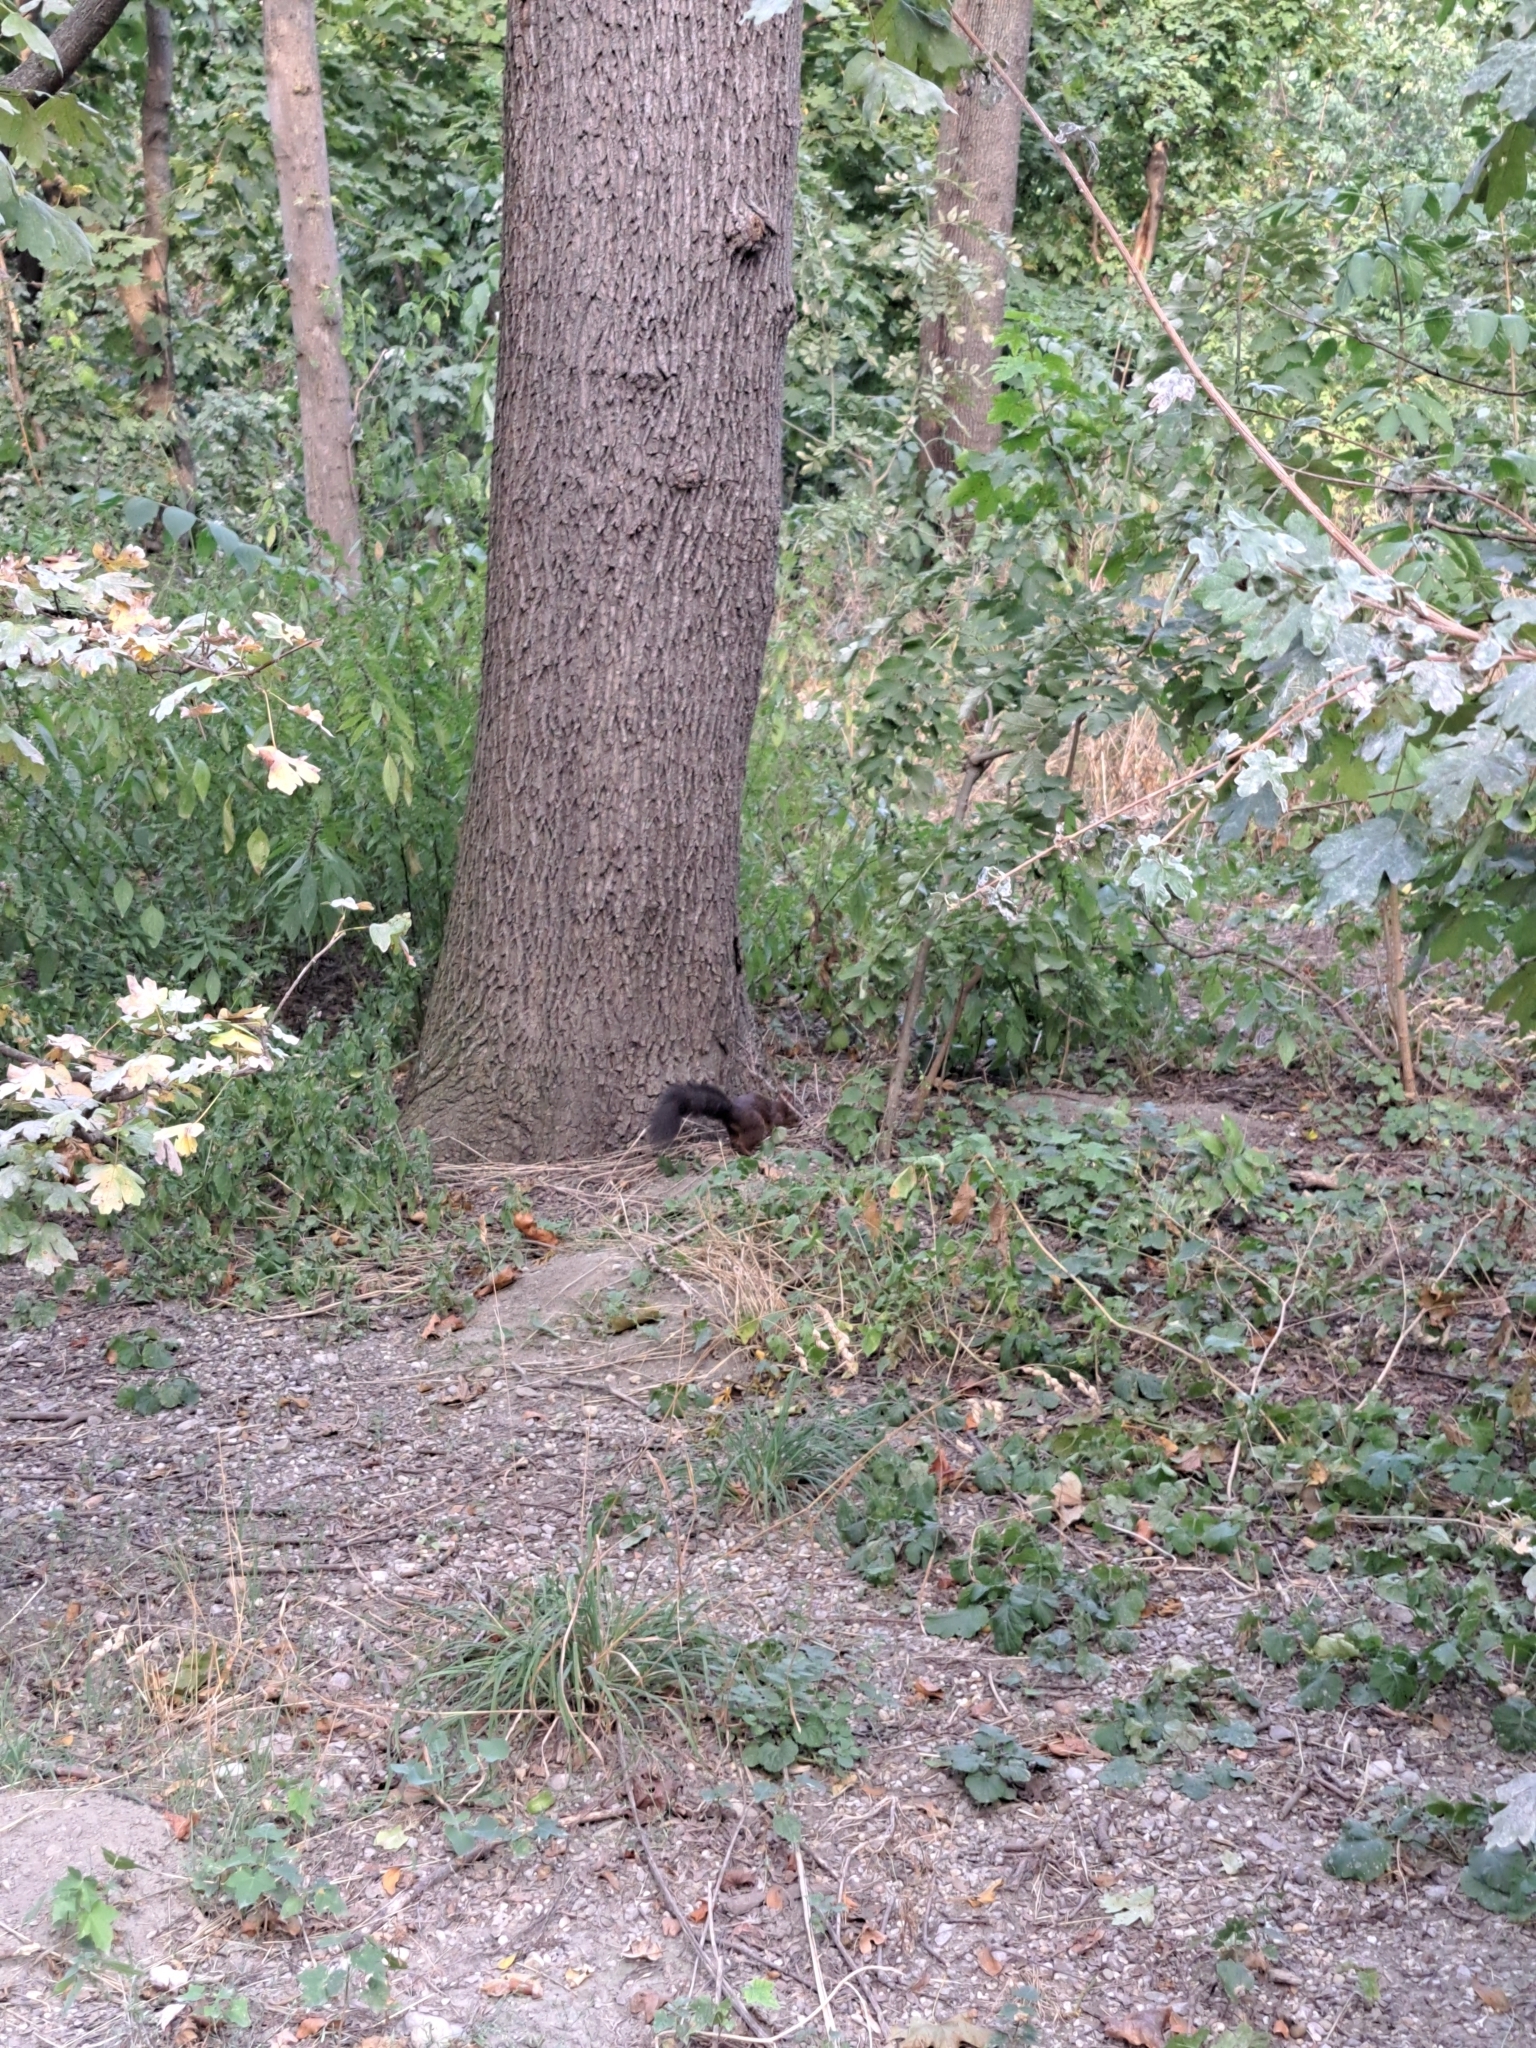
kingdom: Animalia
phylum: Chordata
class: Mammalia
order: Rodentia
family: Sciuridae
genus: Sciurus
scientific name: Sciurus vulgaris
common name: Eurasian red squirrel
